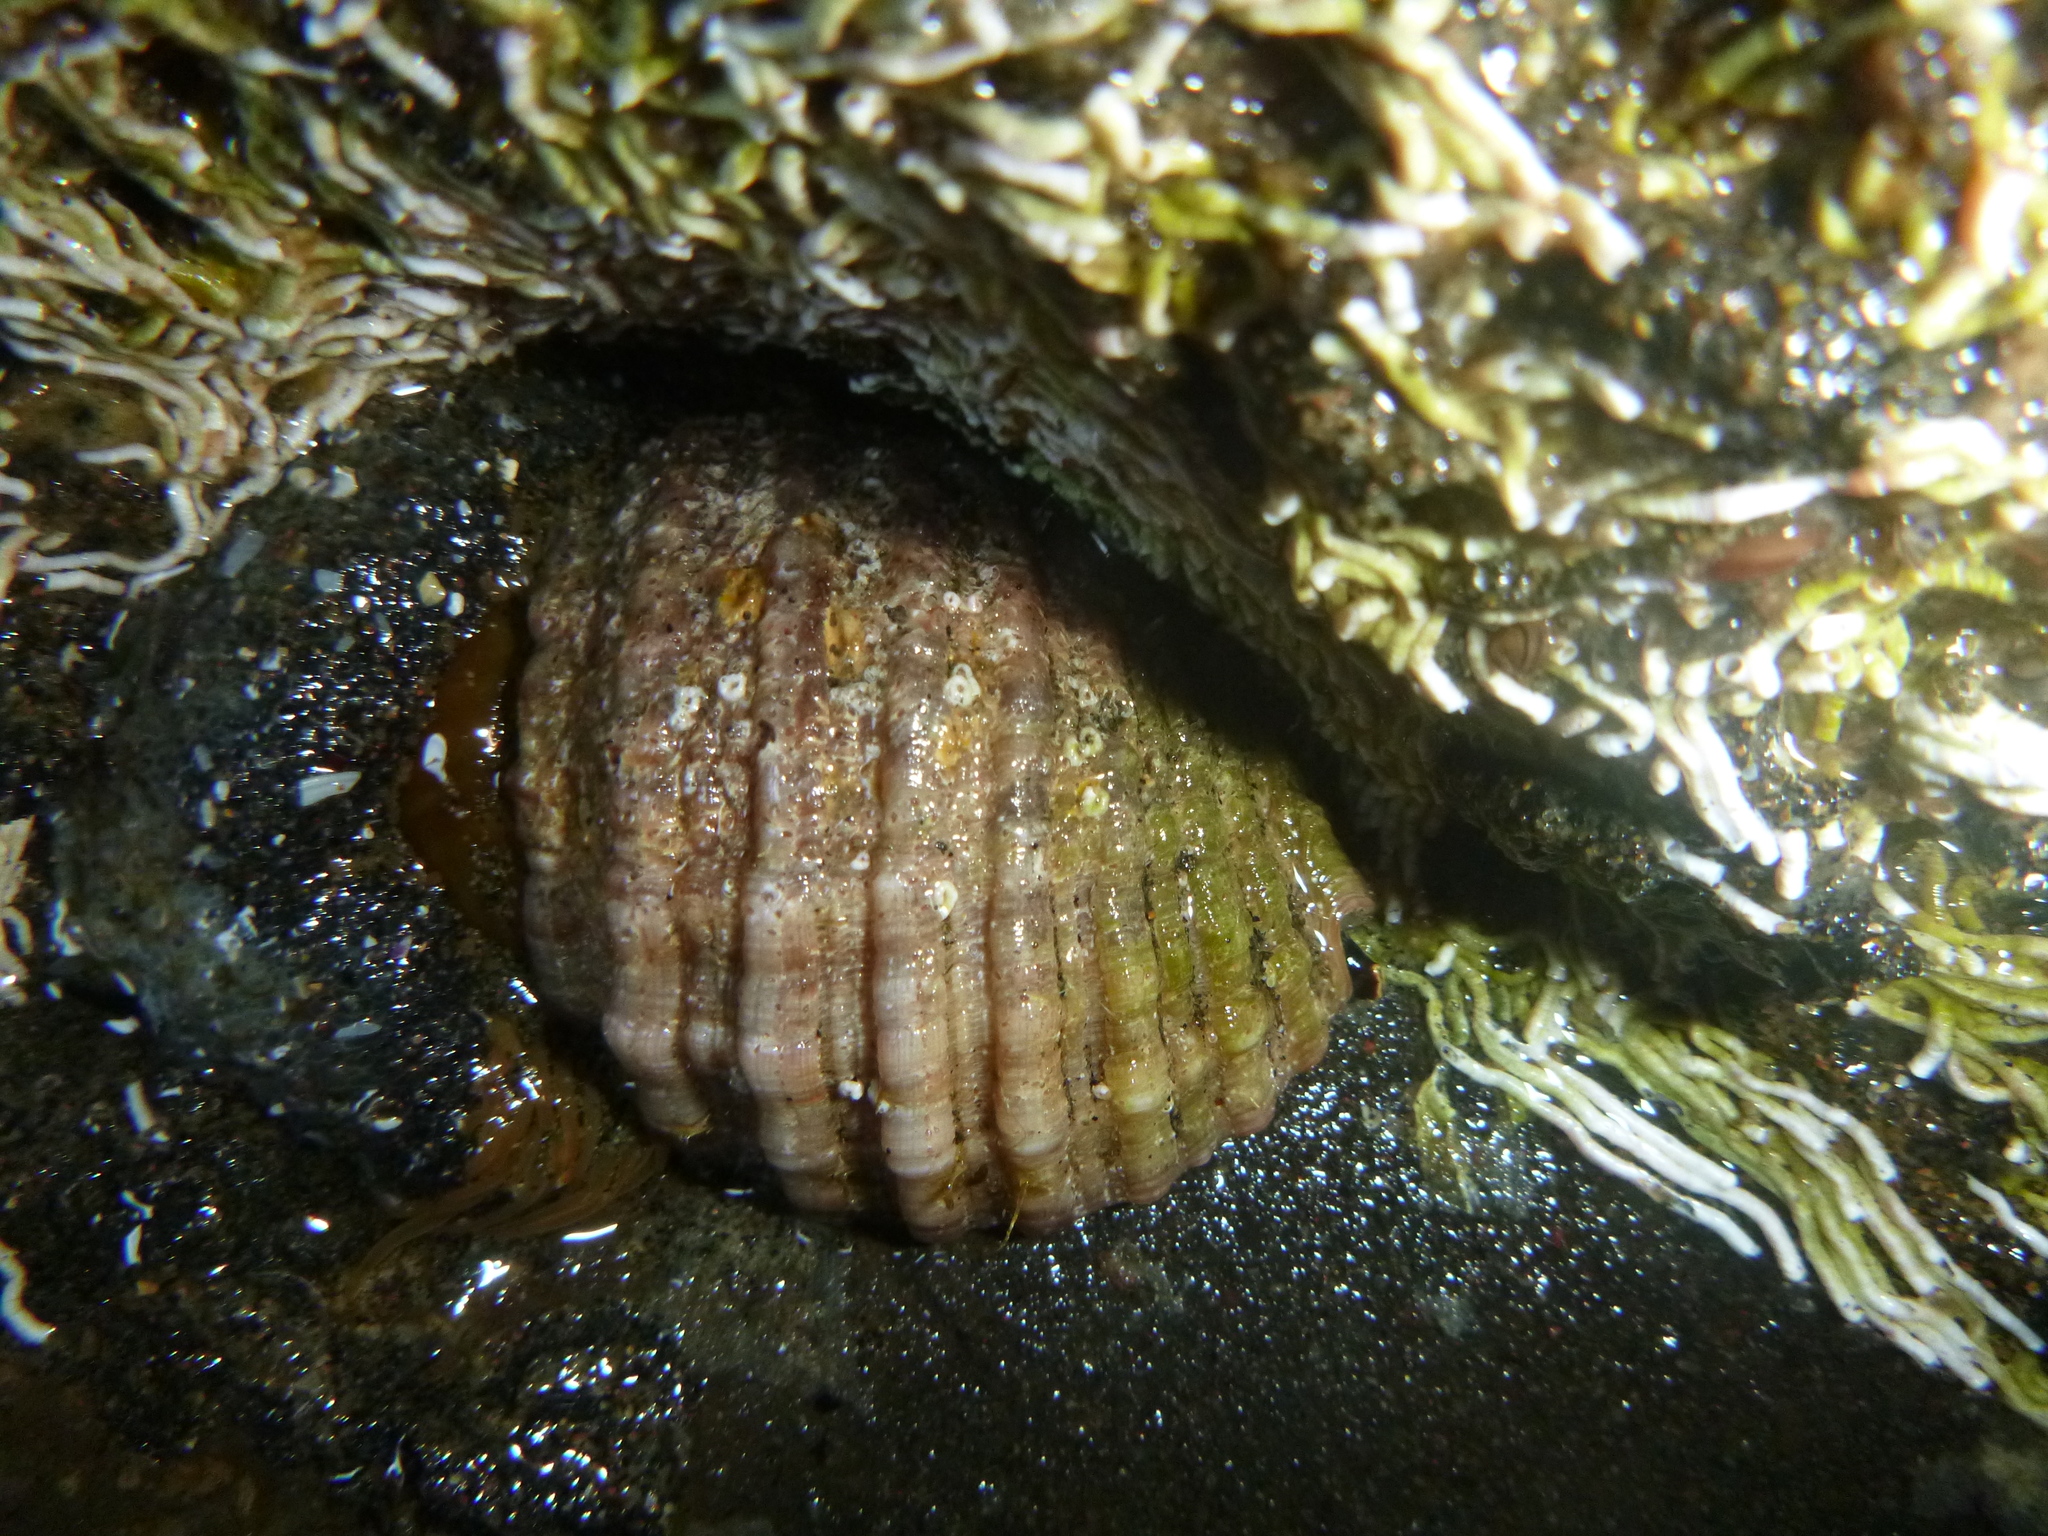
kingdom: Animalia
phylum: Mollusca
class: Gastropoda
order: Neogastropoda
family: Muricidae
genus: Dicathais
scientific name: Dicathais orbita
